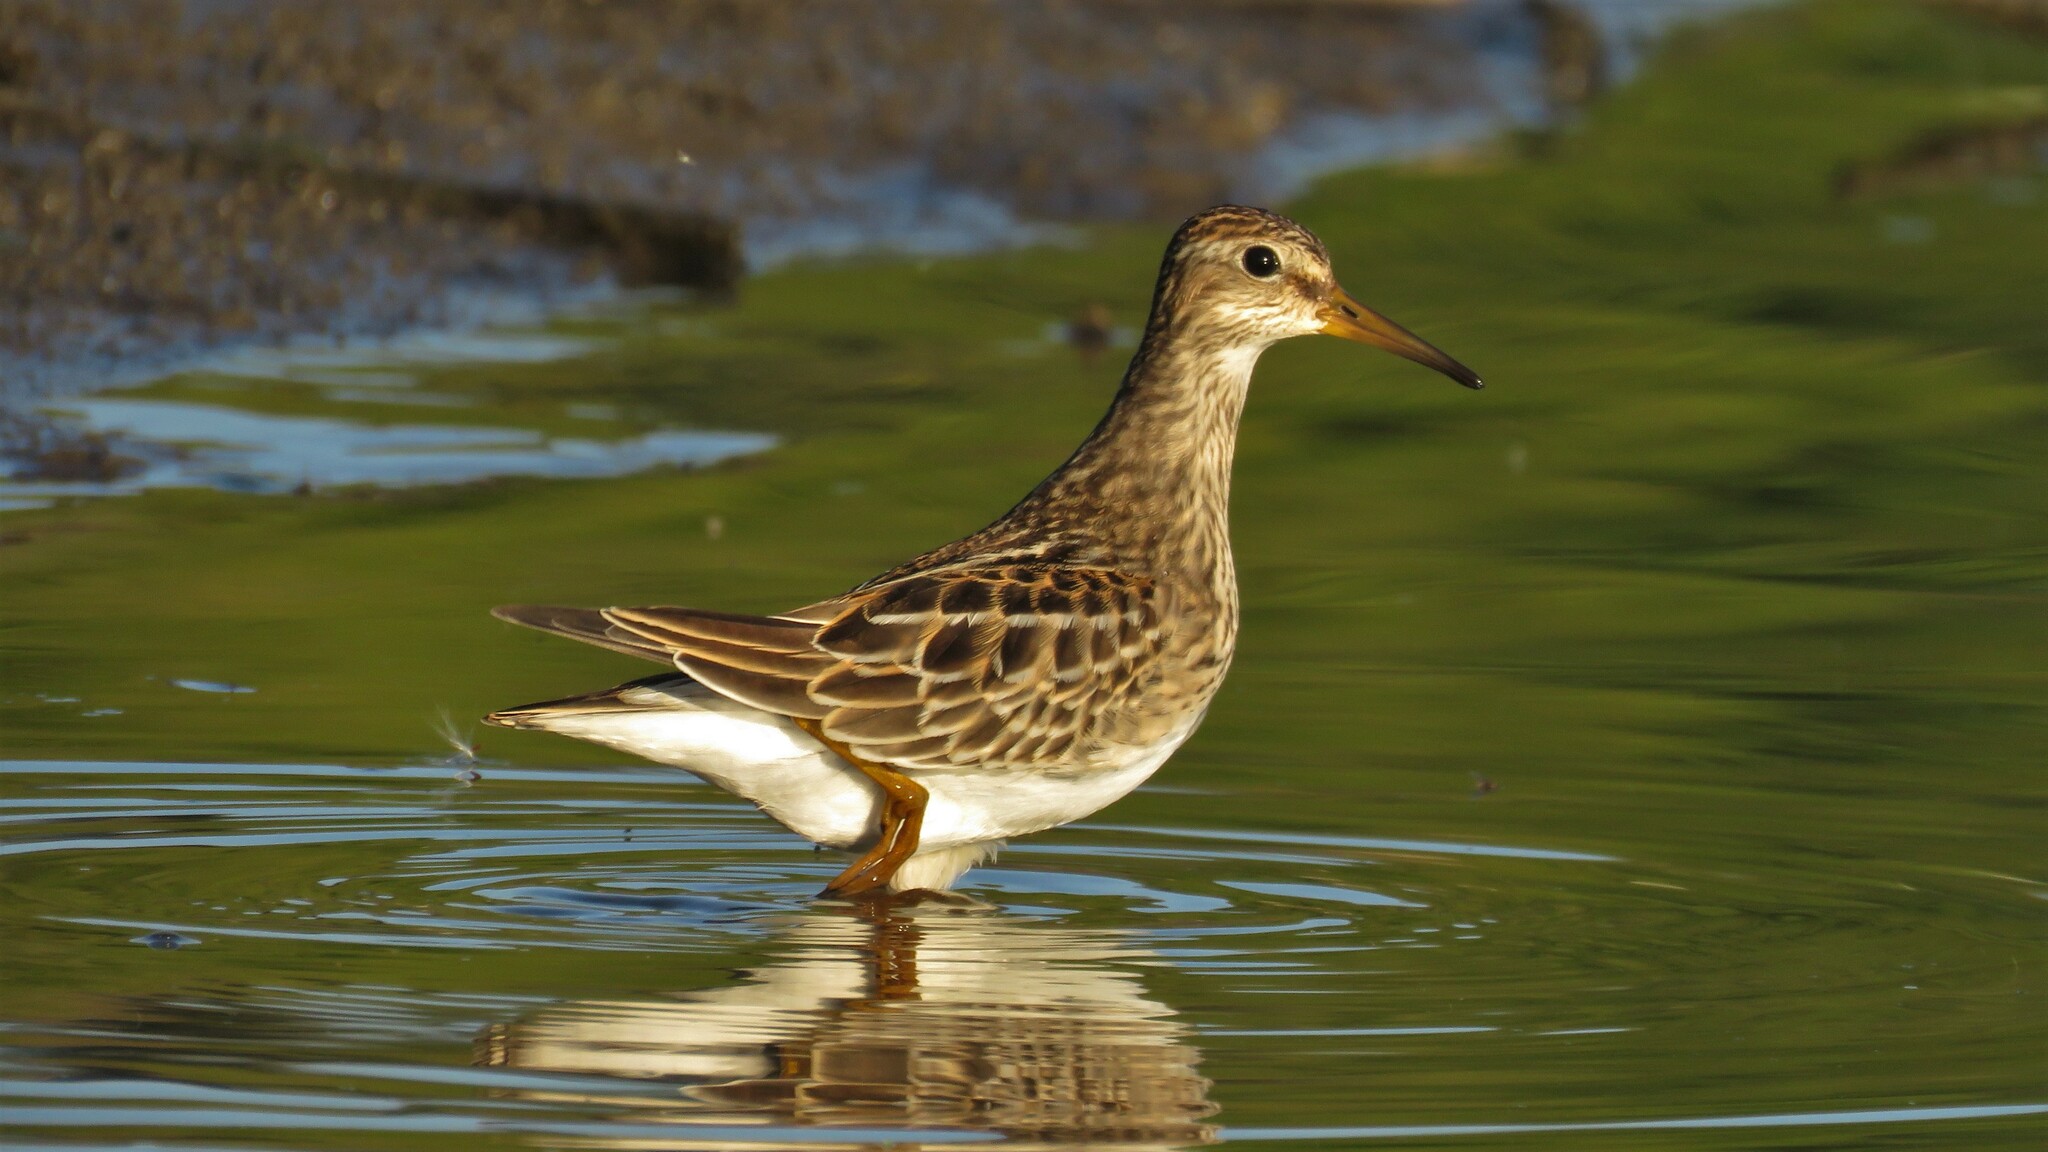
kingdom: Animalia
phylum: Chordata
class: Aves
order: Charadriiformes
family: Scolopacidae
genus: Calidris
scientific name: Calidris melanotos
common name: Pectoral sandpiper
